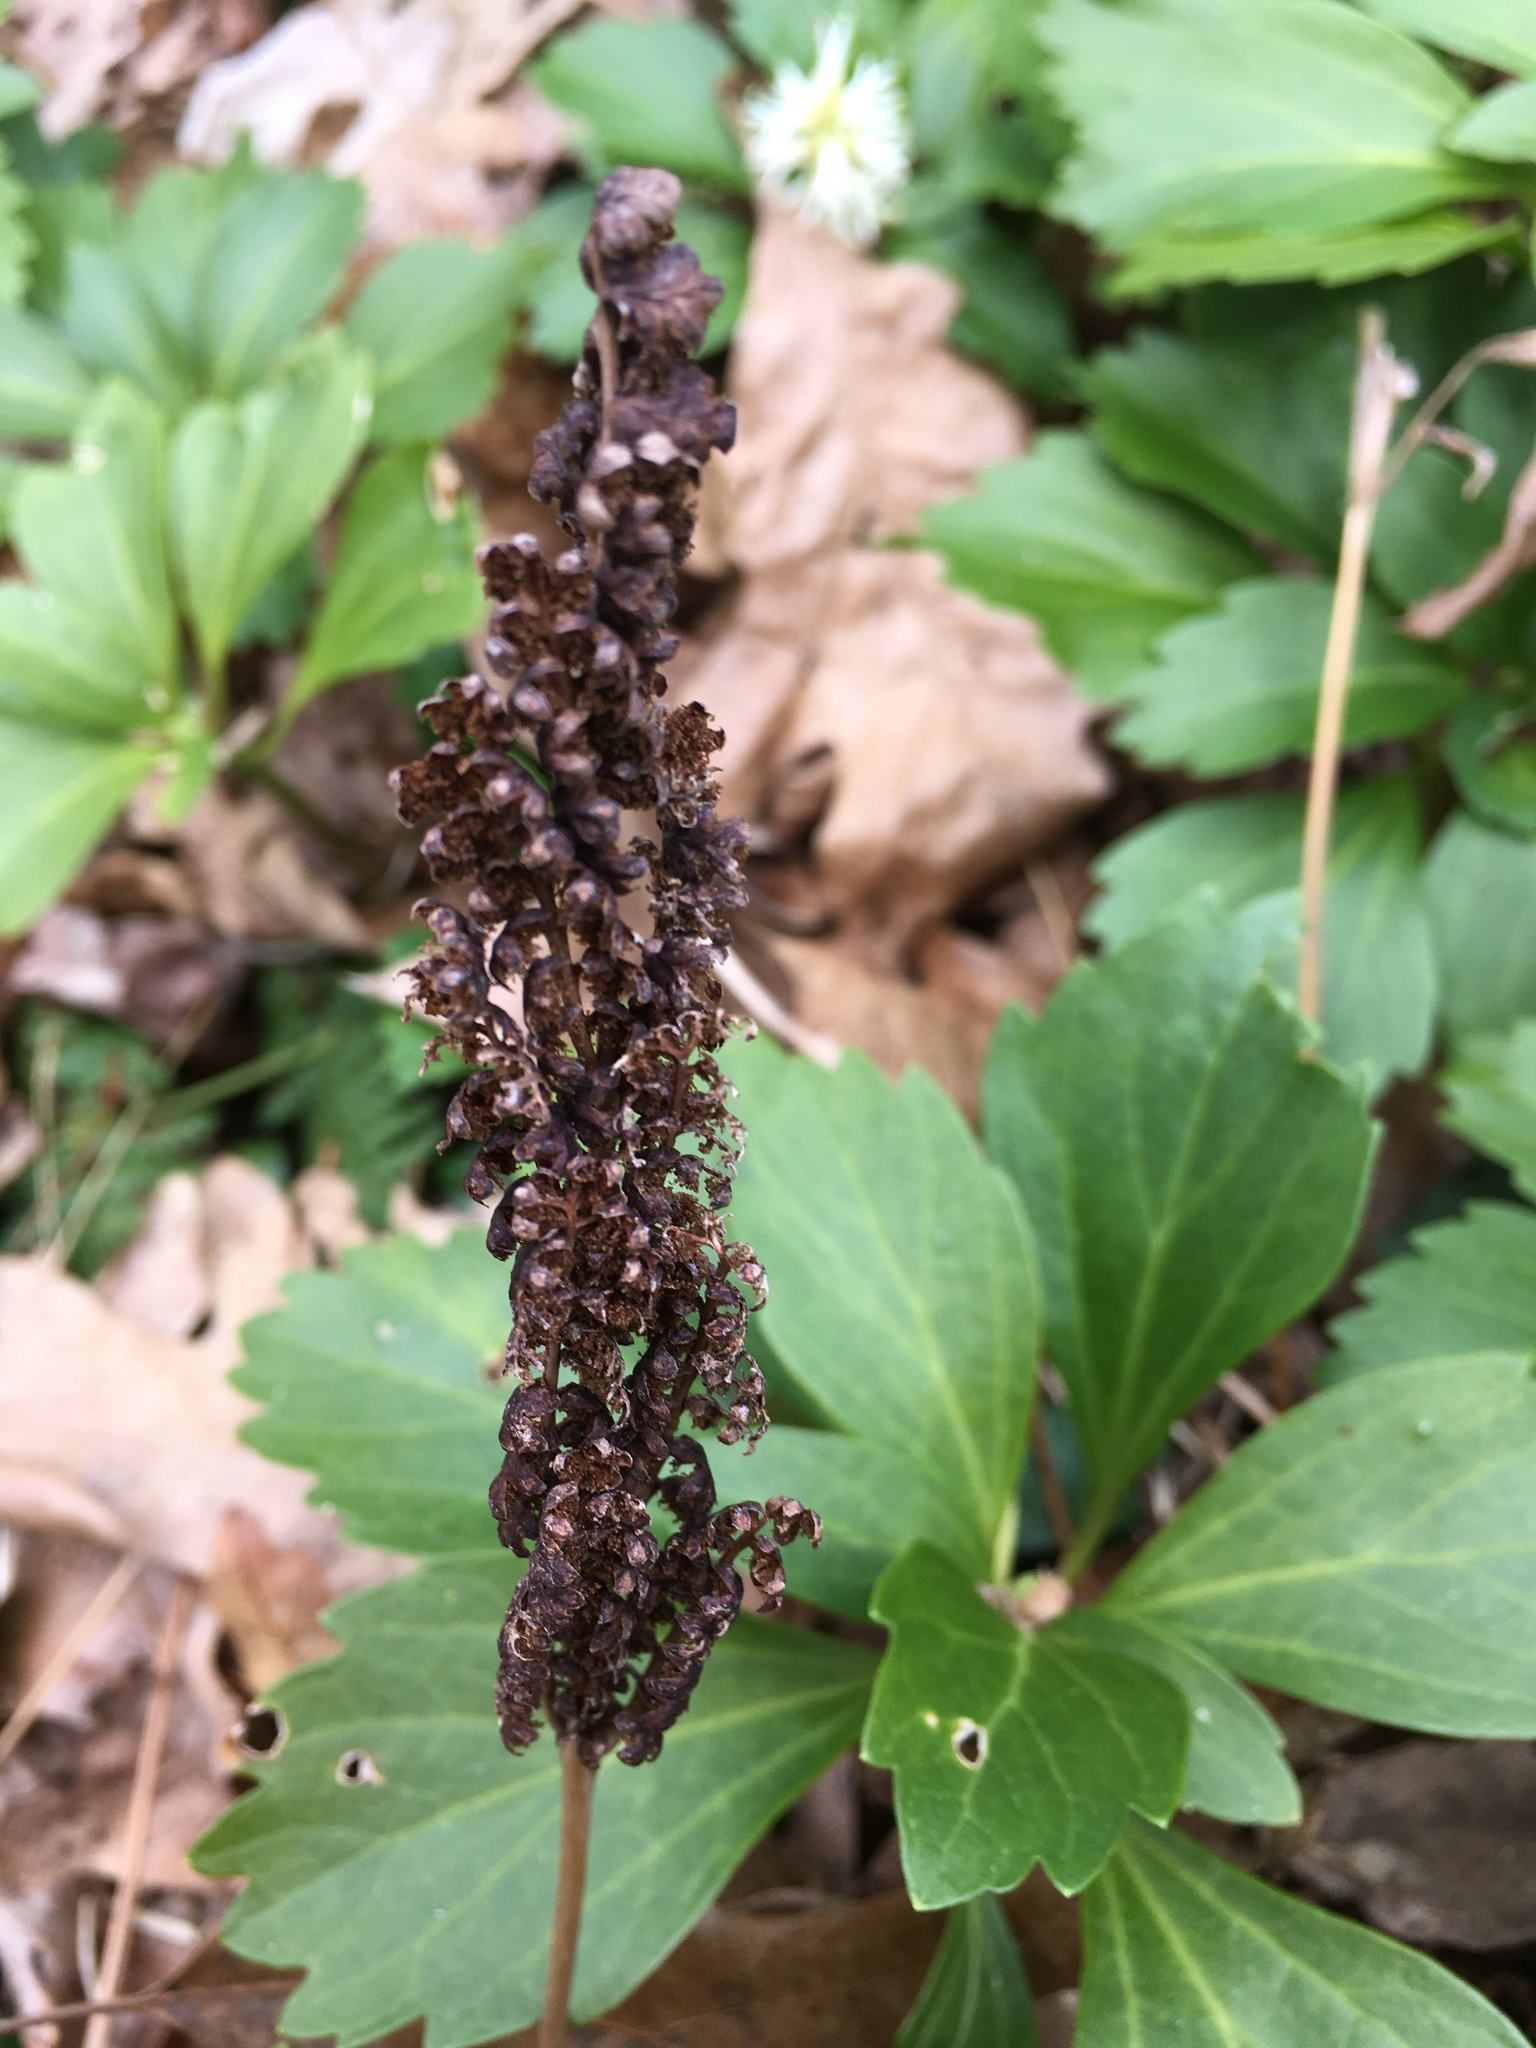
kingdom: Plantae
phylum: Tracheophyta
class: Polypodiopsida
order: Polypodiales
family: Onocleaceae
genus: Onoclea
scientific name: Onoclea sensibilis
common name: Sensitive fern
